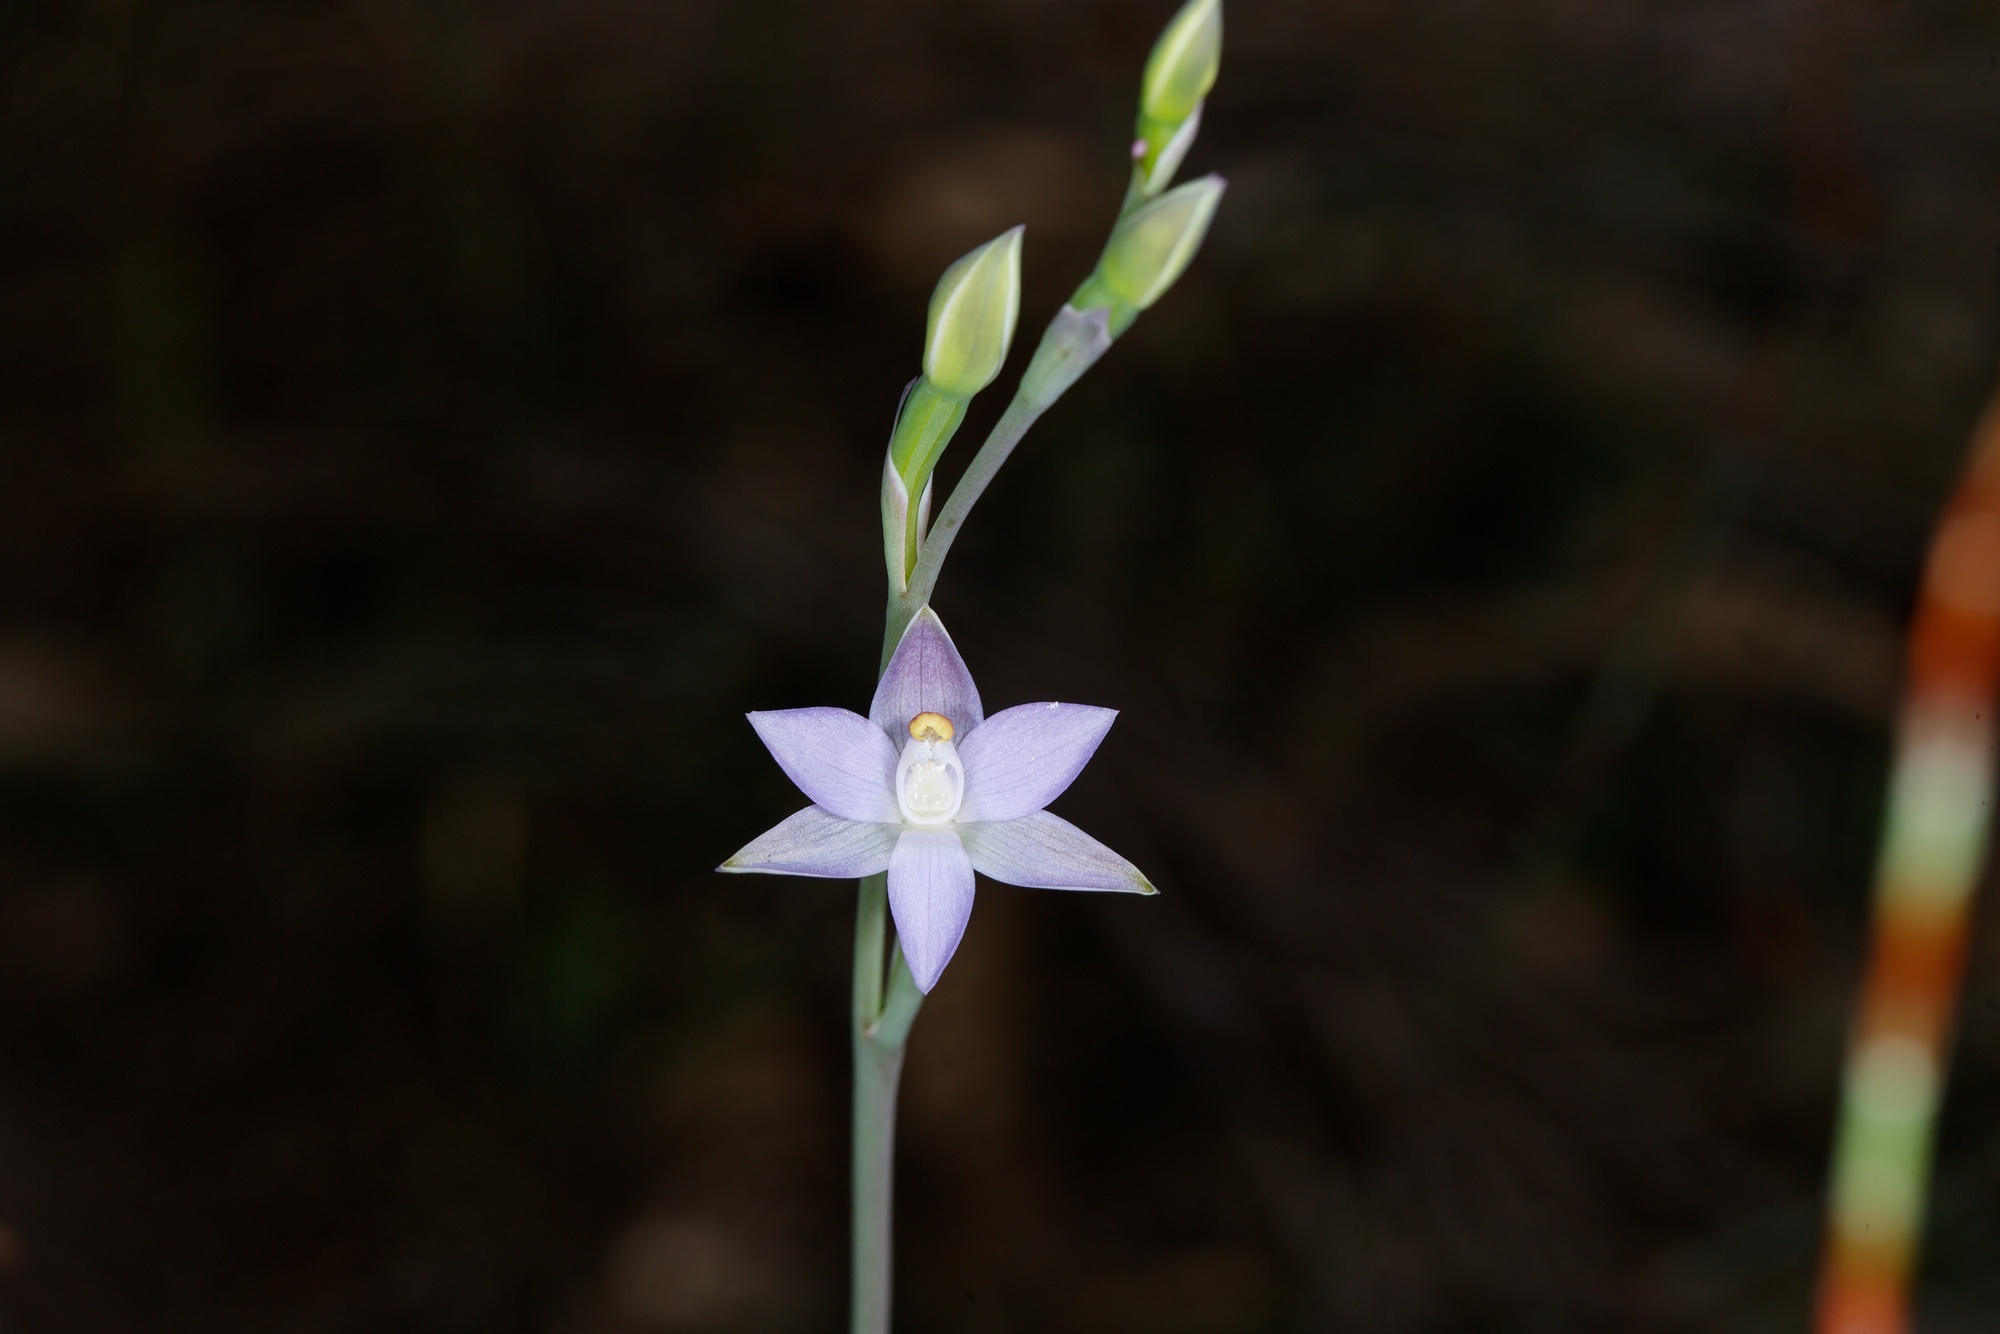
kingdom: Plantae
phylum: Tracheophyta
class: Liliopsida
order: Asparagales
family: Orchidaceae
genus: Thelymitra
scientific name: Thelymitra pauciflora
